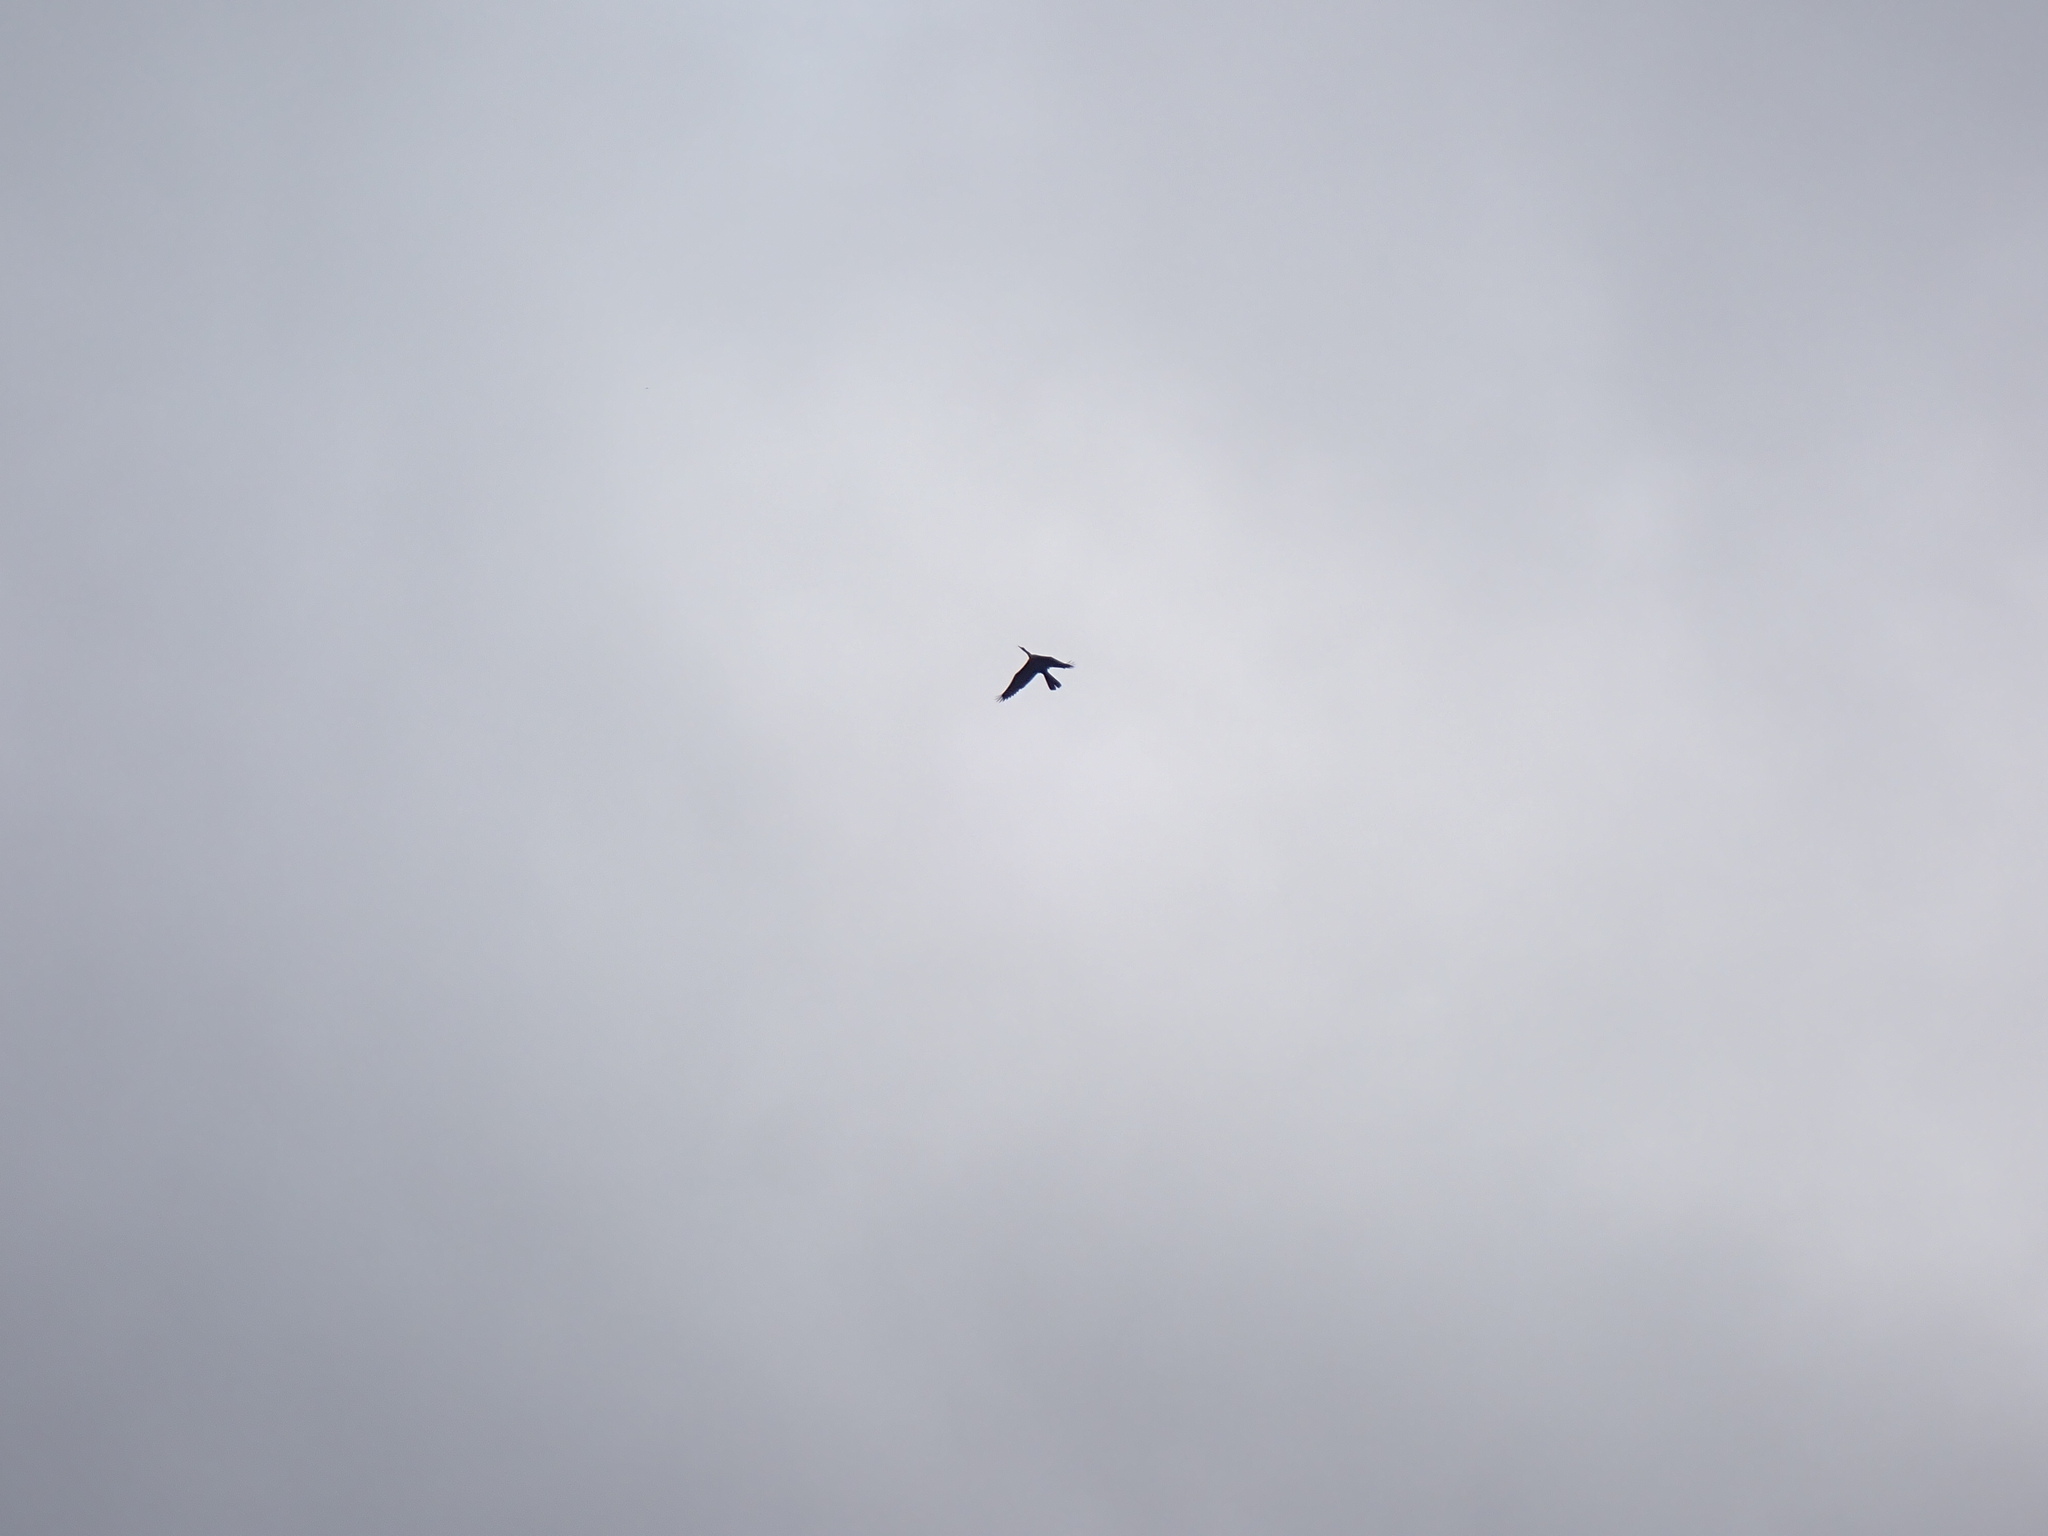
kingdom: Animalia
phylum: Chordata
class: Aves
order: Suliformes
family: Anhingidae
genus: Anhinga
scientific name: Anhinga anhinga
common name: Anhinga
